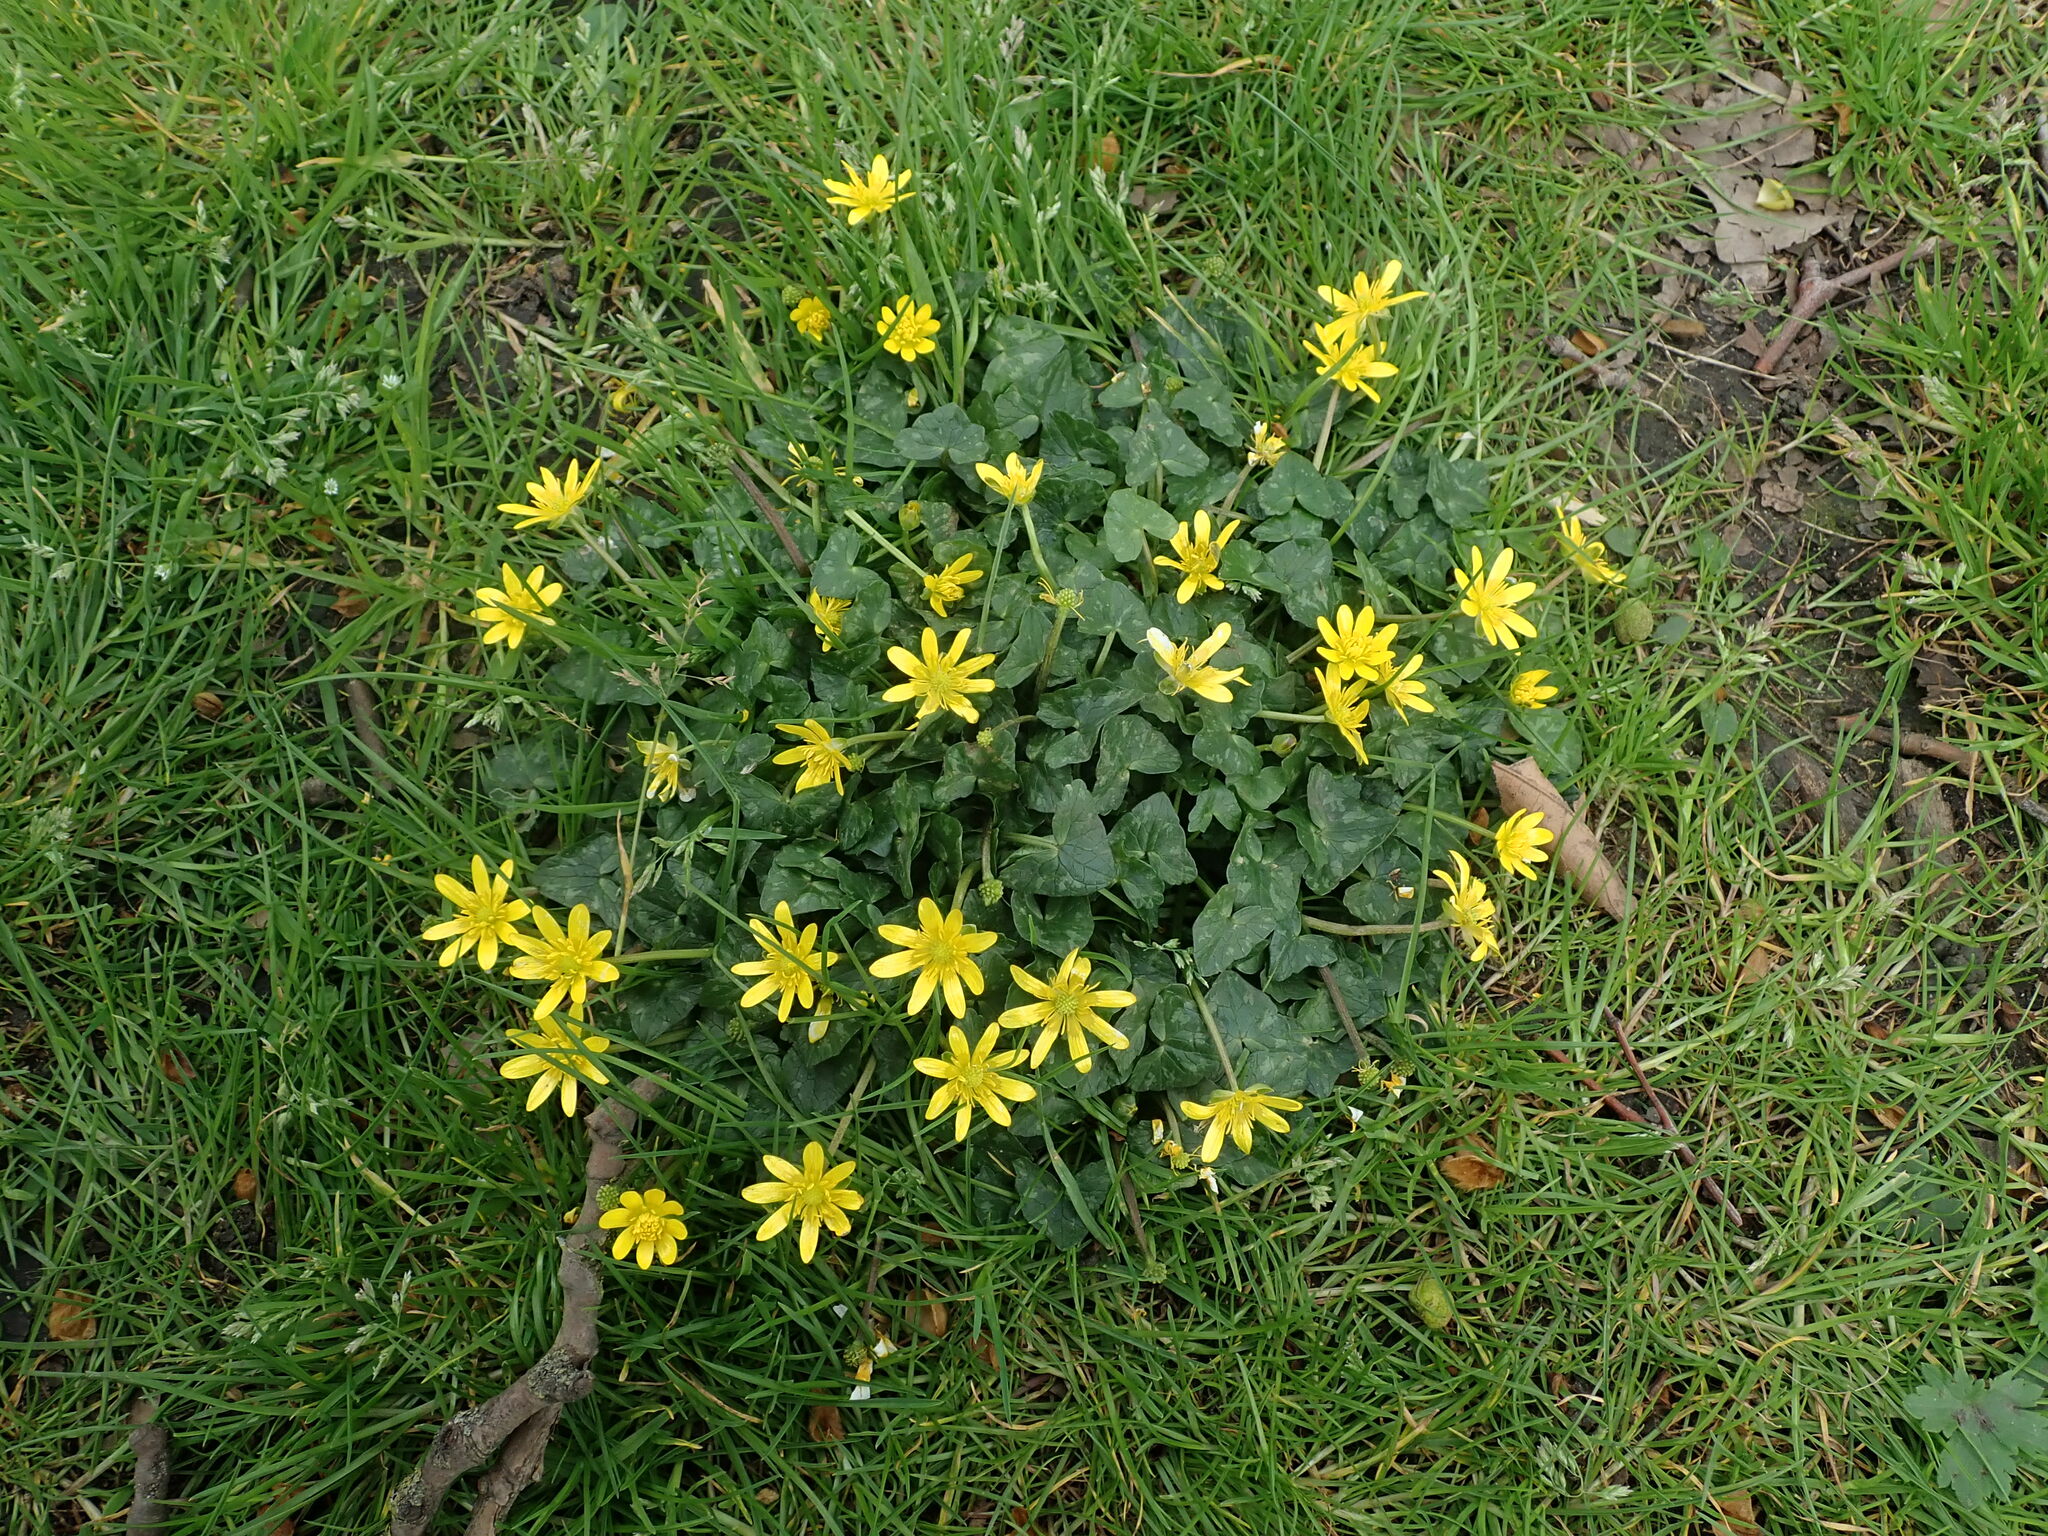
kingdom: Plantae
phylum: Tracheophyta
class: Magnoliopsida
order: Ranunculales
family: Ranunculaceae
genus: Ficaria
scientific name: Ficaria verna
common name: Lesser celandine
